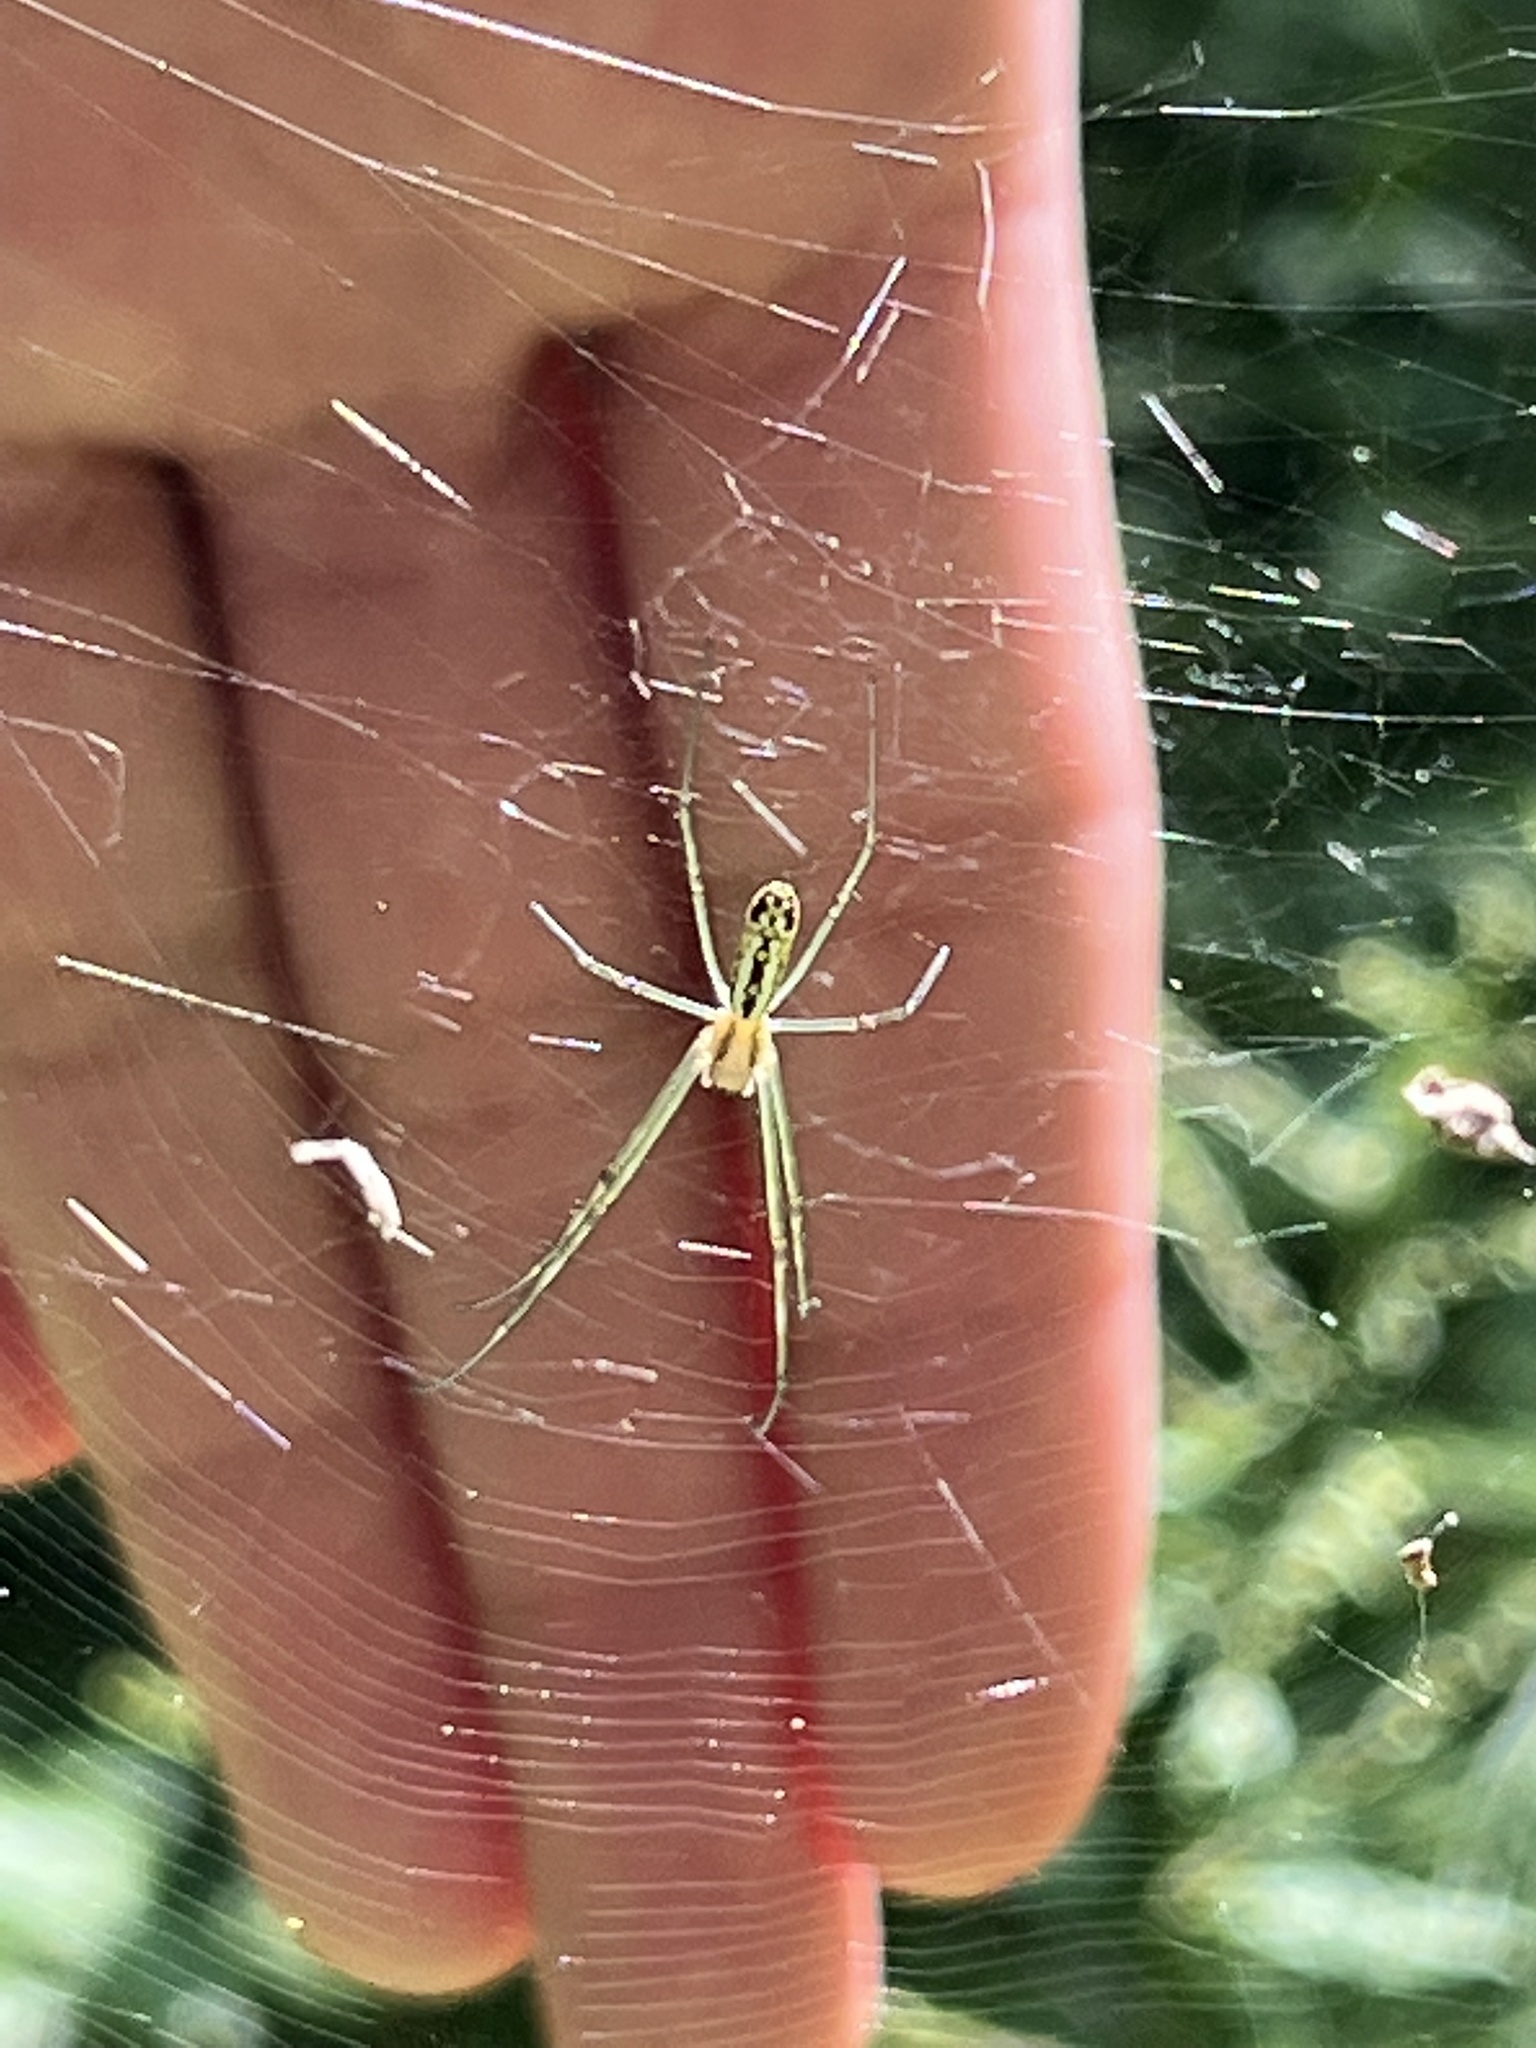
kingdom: Animalia
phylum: Arthropoda
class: Arachnida
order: Araneae
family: Araneidae
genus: Trichonephila
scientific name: Trichonephila clavata
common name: Jorō spider
